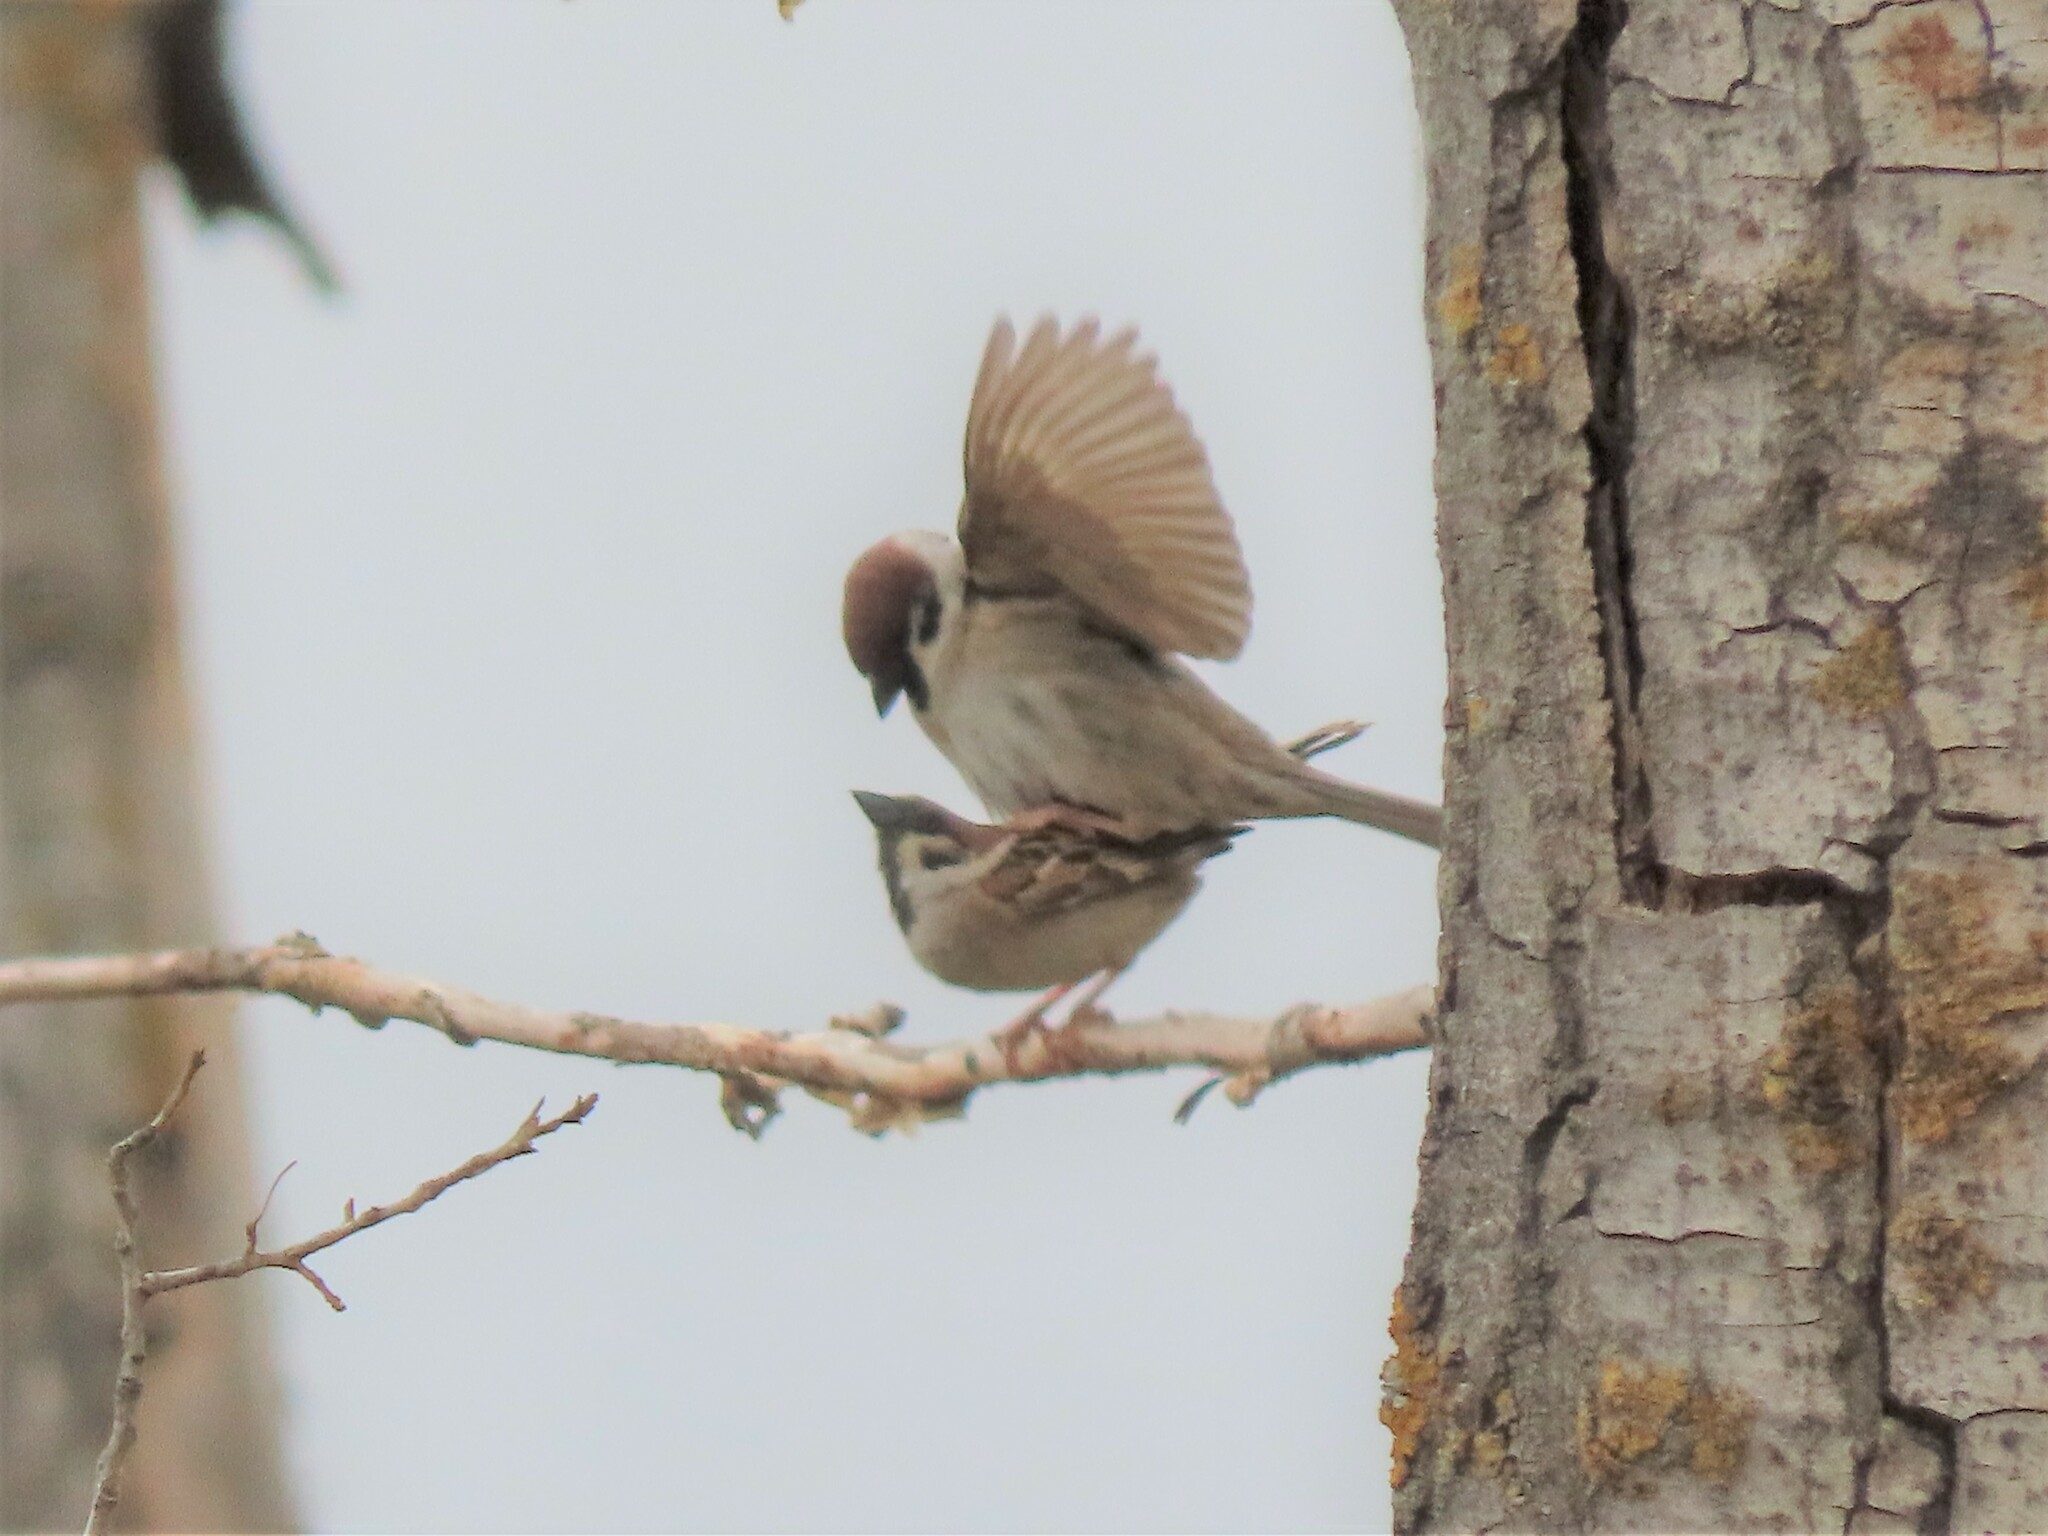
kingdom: Animalia
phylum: Chordata
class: Aves
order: Passeriformes
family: Passeridae
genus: Passer
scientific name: Passer montanus
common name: Eurasian tree sparrow
